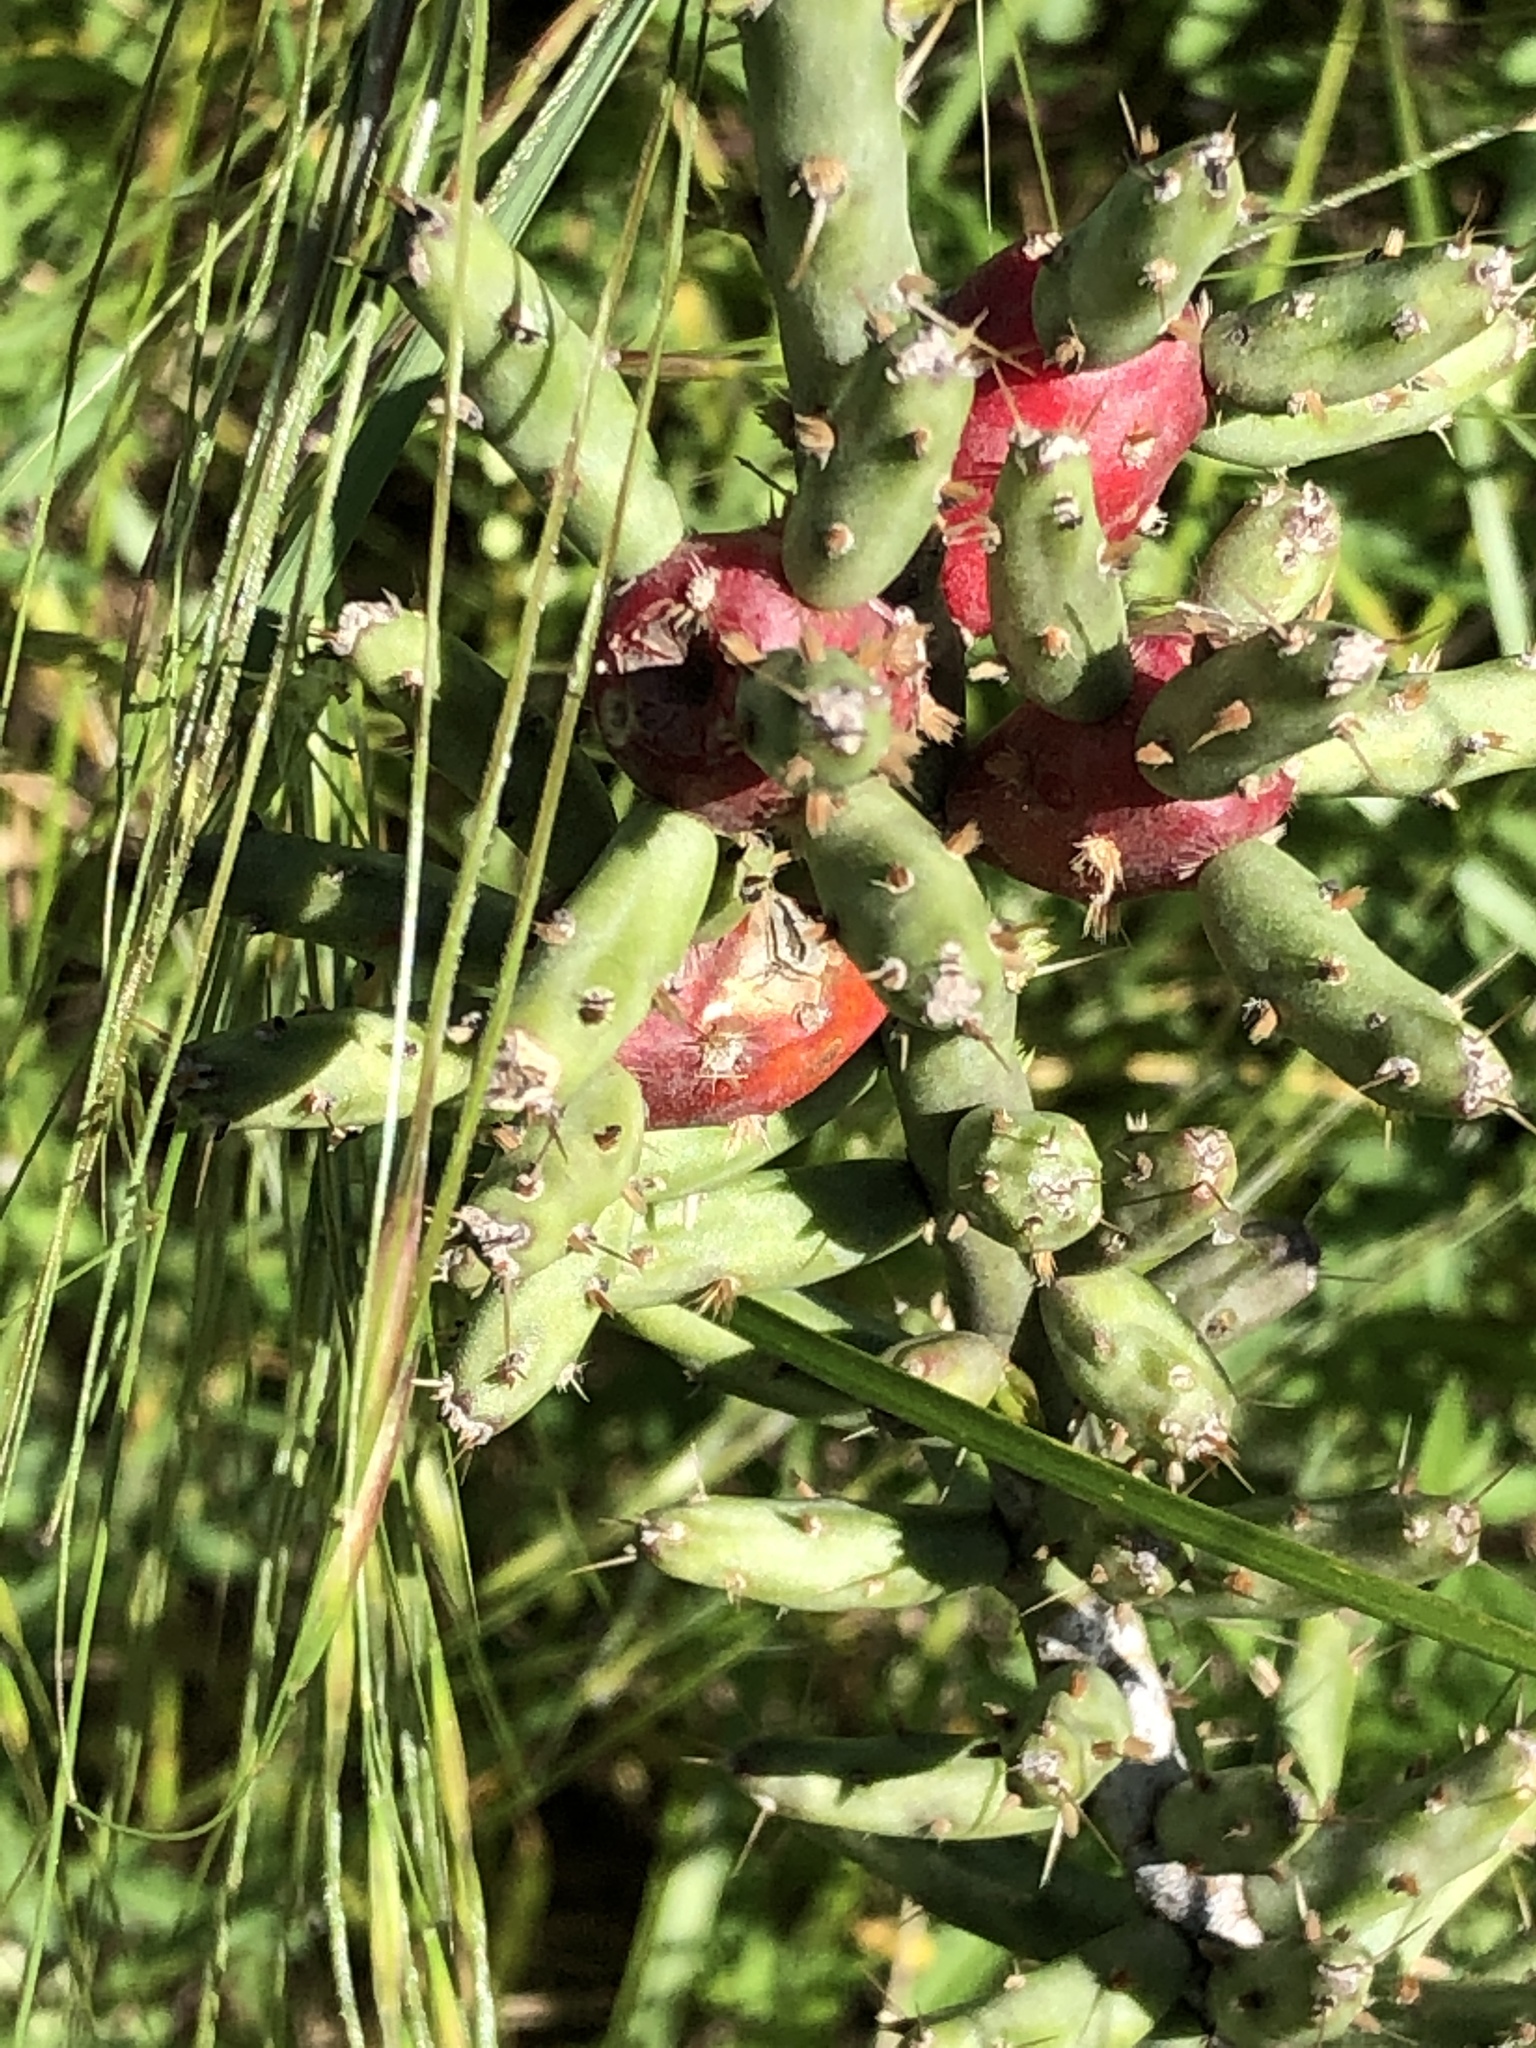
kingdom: Plantae
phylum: Tracheophyta
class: Magnoliopsida
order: Caryophyllales
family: Cactaceae
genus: Cylindropuntia
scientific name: Cylindropuntia leptocaulis
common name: Christmas cactus
